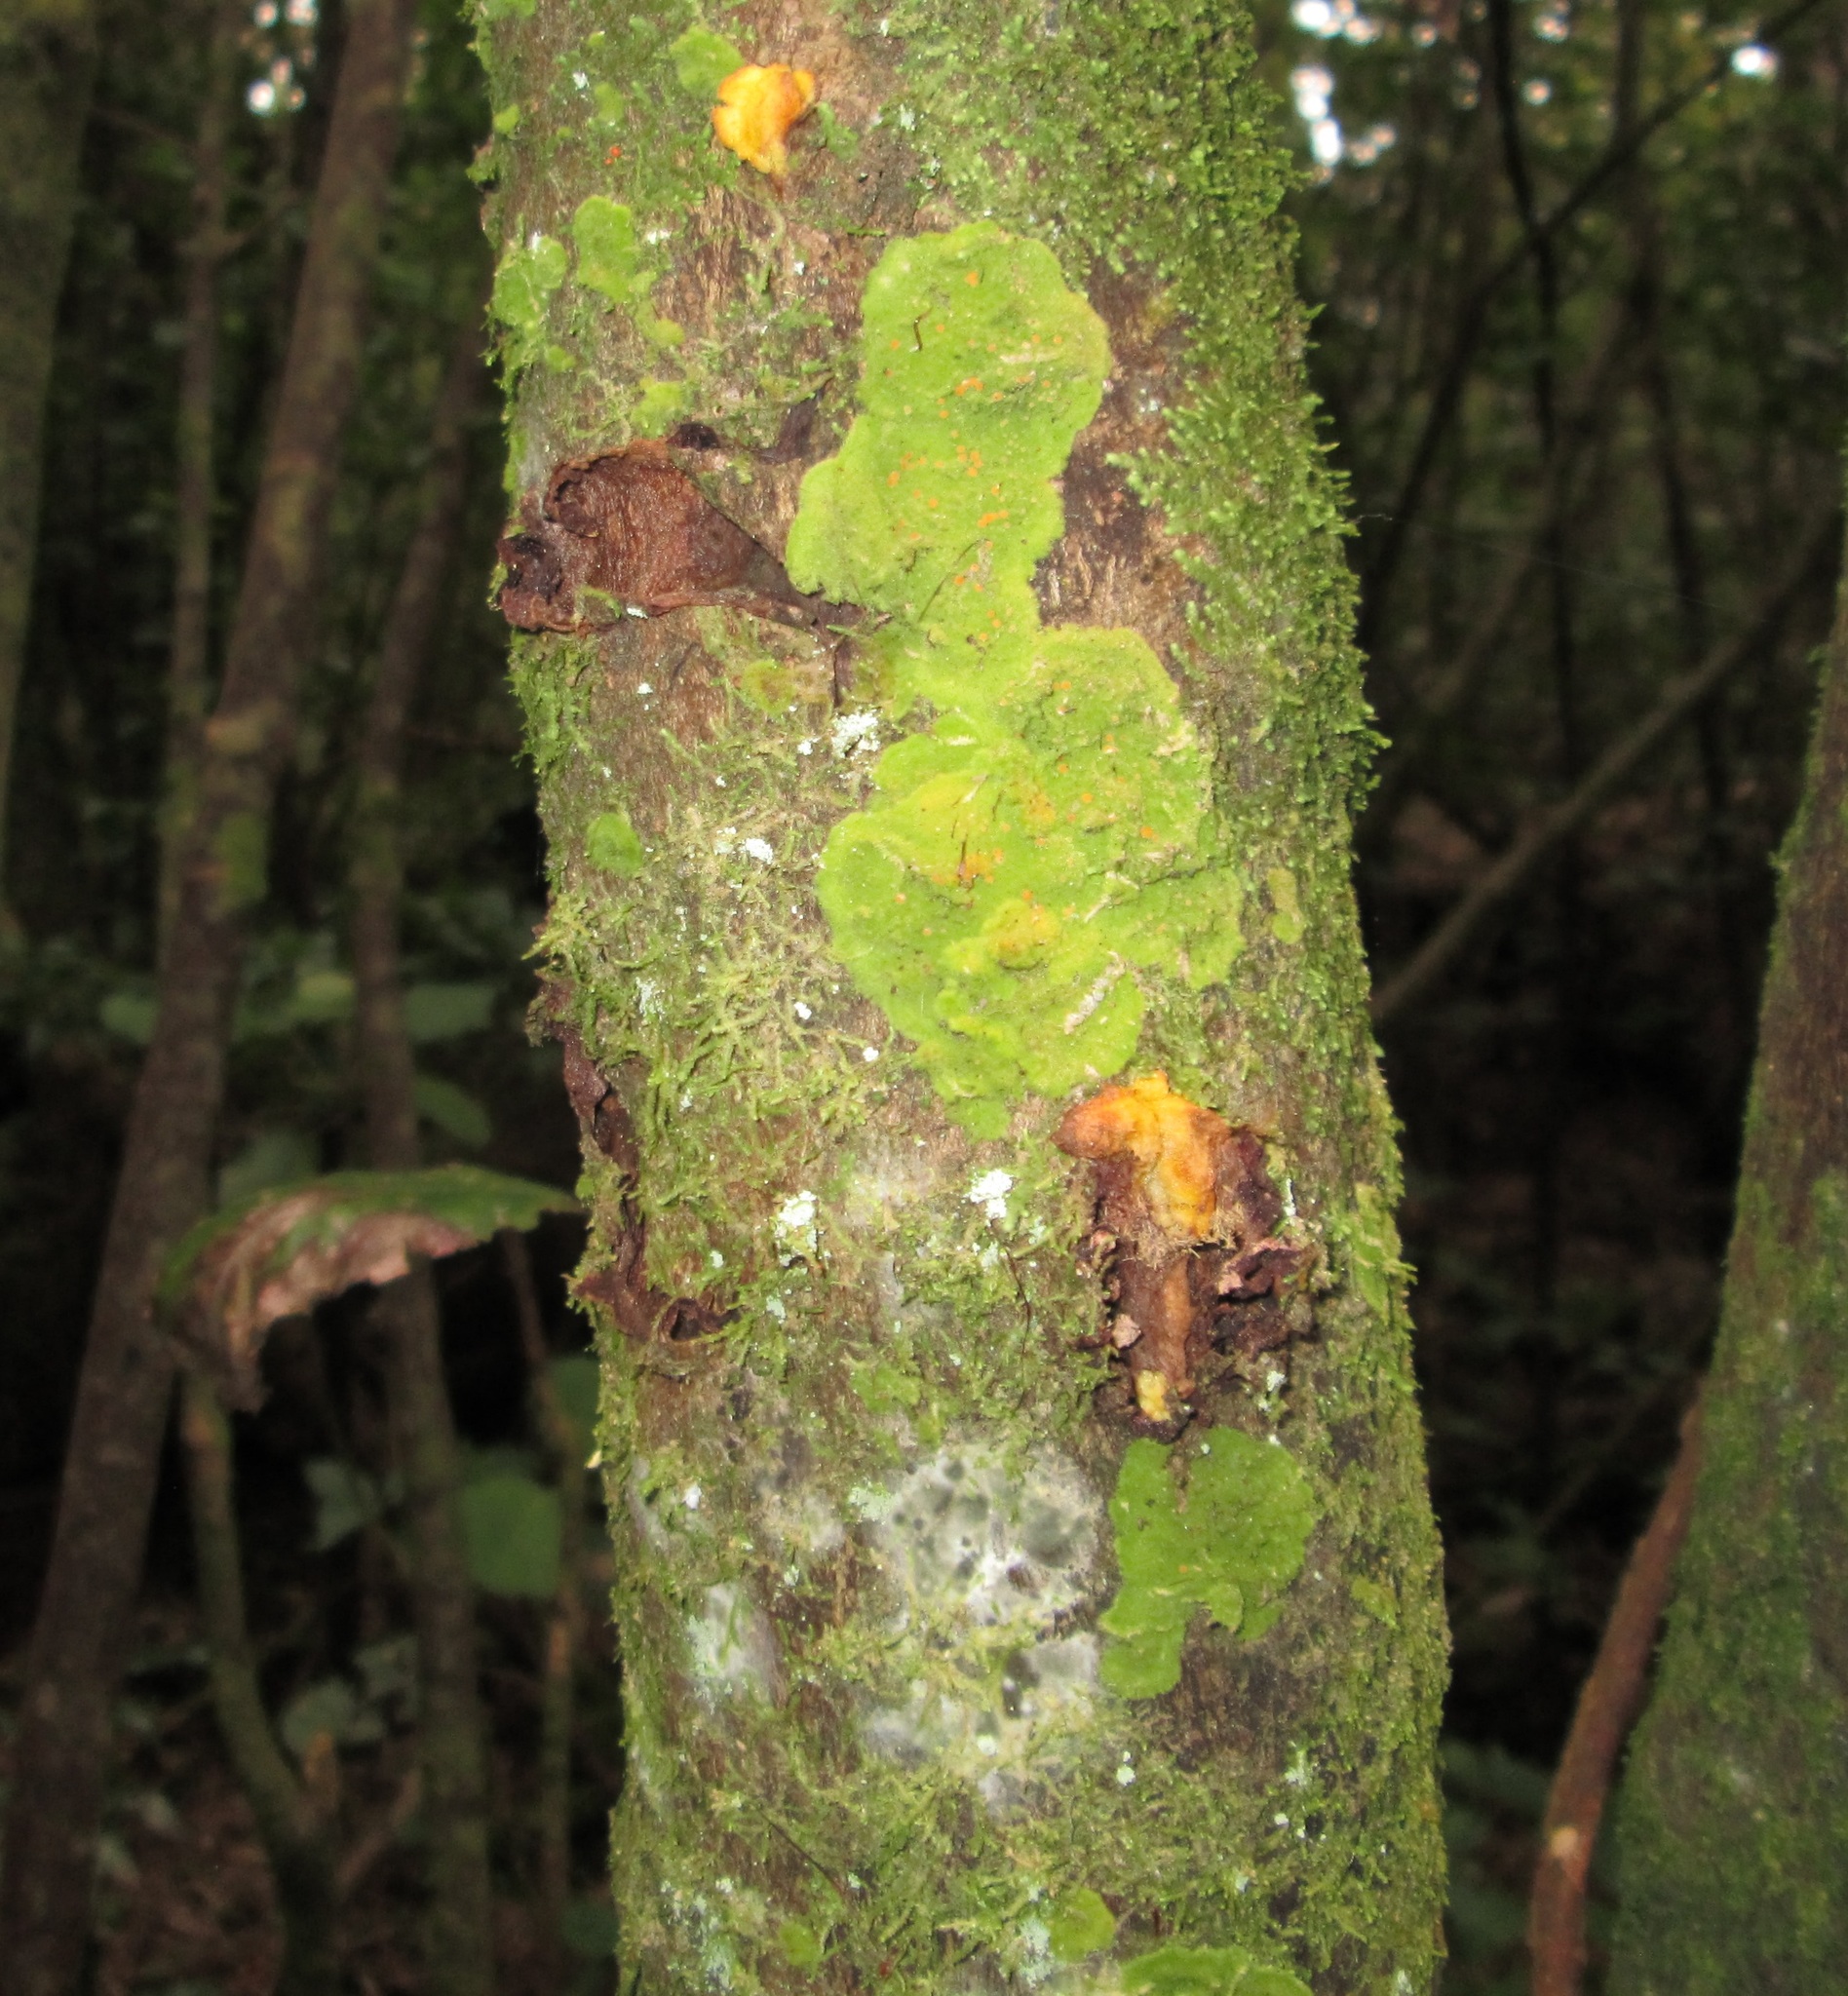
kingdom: Fungi
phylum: Ascomycota
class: Lecanoromycetes
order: Ostropales
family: Coenogoniaceae
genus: Coenogonium
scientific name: Coenogonium implexum
